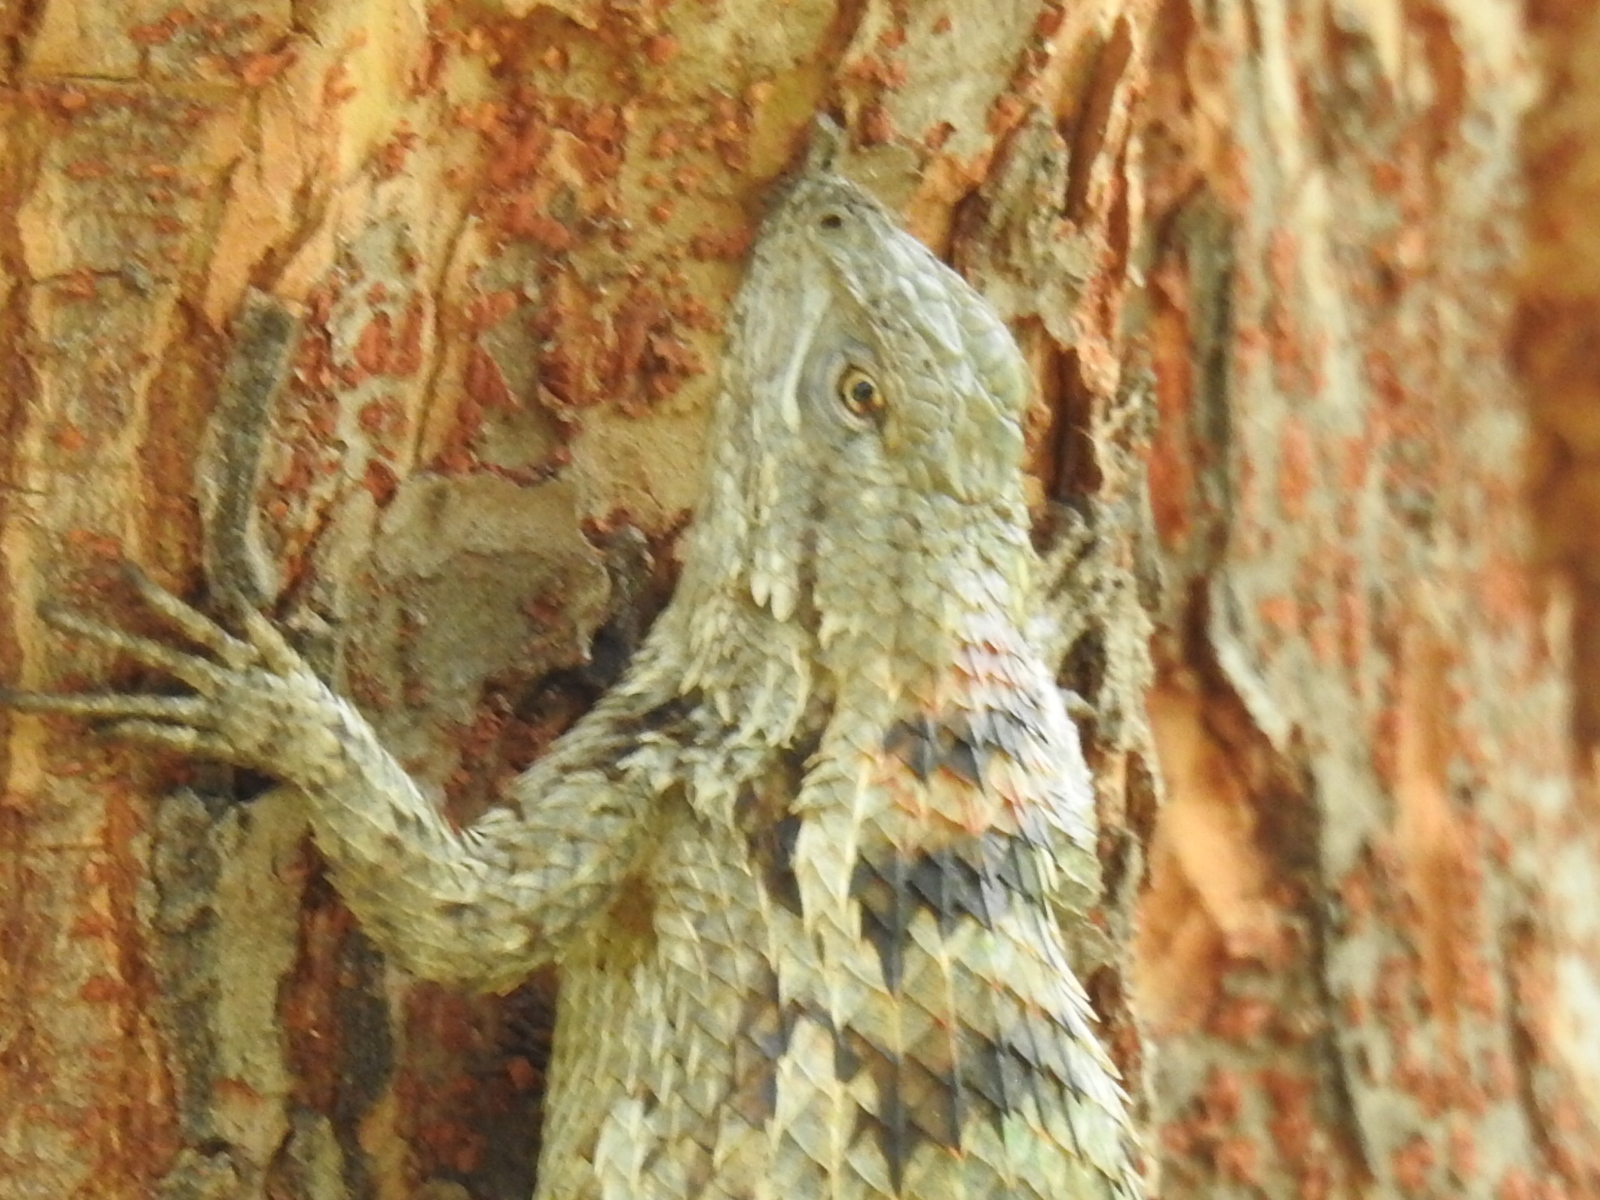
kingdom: Animalia
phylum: Chordata
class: Squamata
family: Phrynosomatidae
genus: Sceloporus
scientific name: Sceloporus olivaceus
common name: Texas spiny lizard
